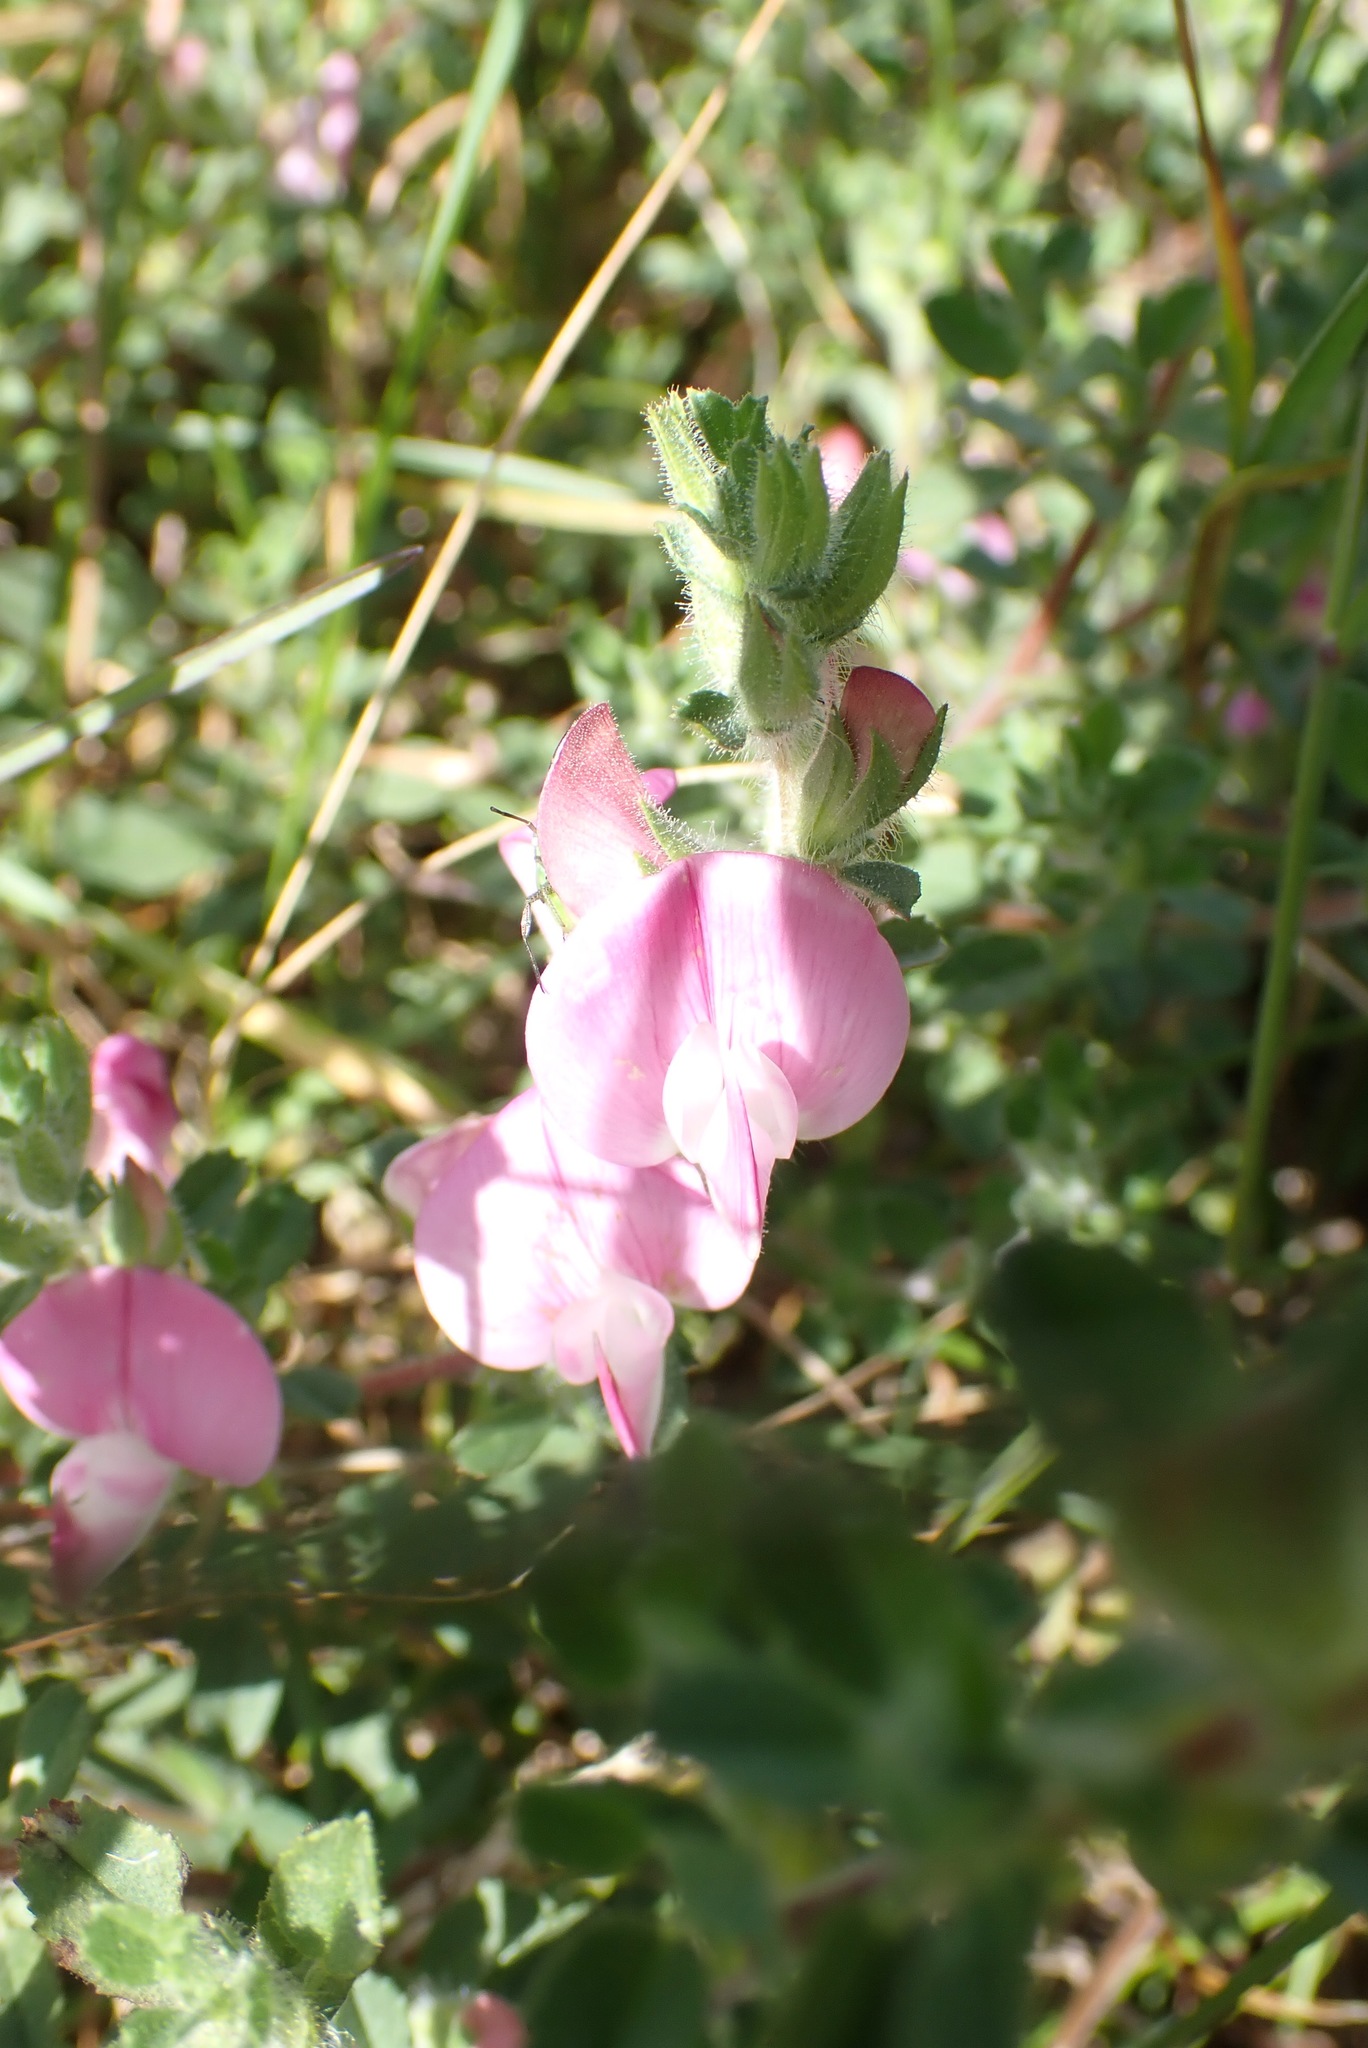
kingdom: Plantae
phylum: Tracheophyta
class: Magnoliopsida
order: Fabales
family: Fabaceae
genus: Ononis
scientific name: Ononis spinosa
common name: Spiny restharrow
